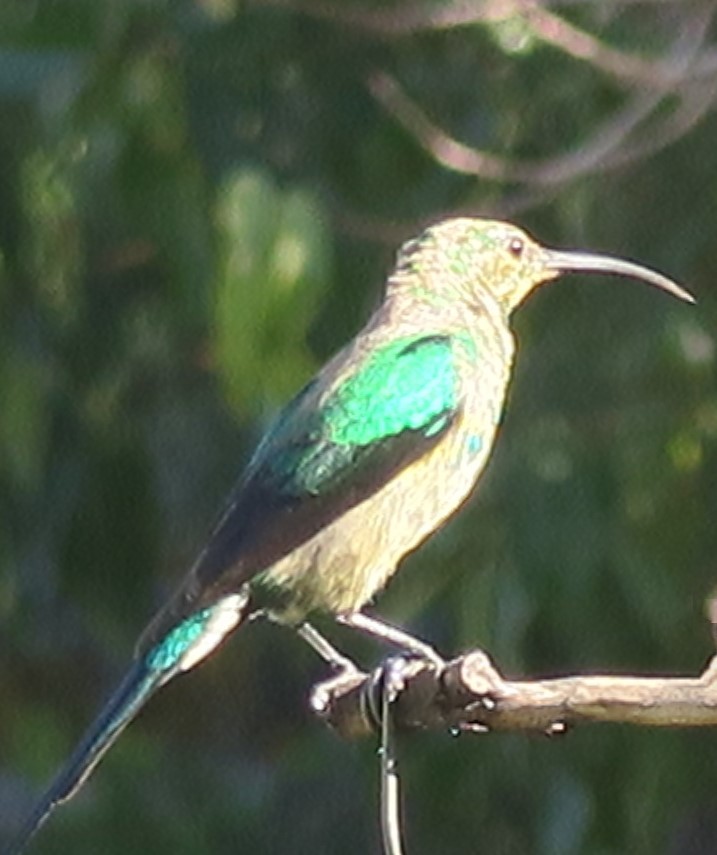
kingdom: Animalia
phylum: Chordata
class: Aves
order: Passeriformes
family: Nectariniidae
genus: Nectarinia
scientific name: Nectarinia famosa
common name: Malachite sunbird
